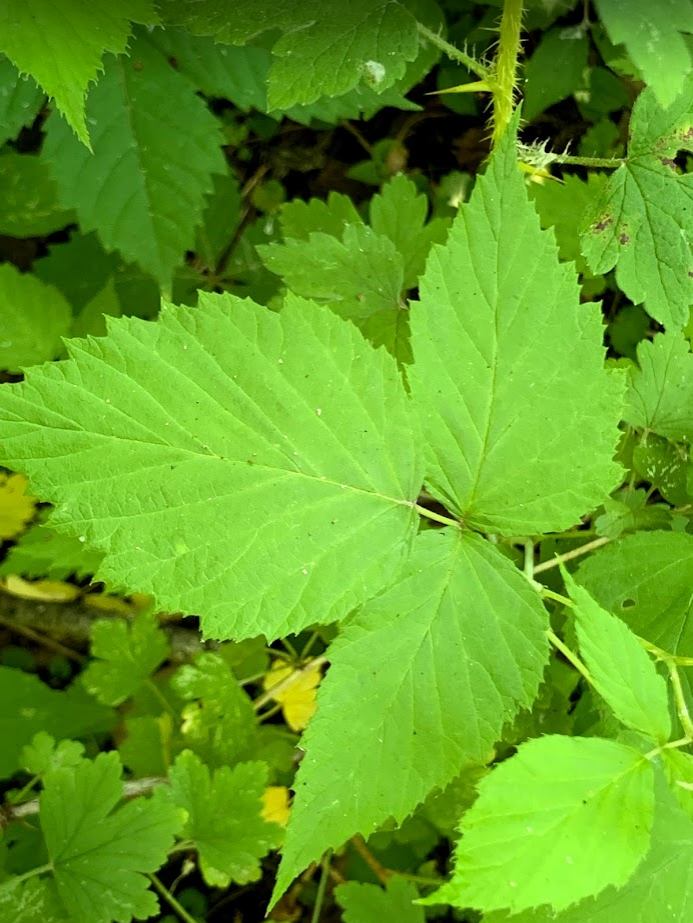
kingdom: Plantae
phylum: Tracheophyta
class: Magnoliopsida
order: Rosales
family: Rosaceae
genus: Rubus
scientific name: Rubus occidentalis
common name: Black raspberry
